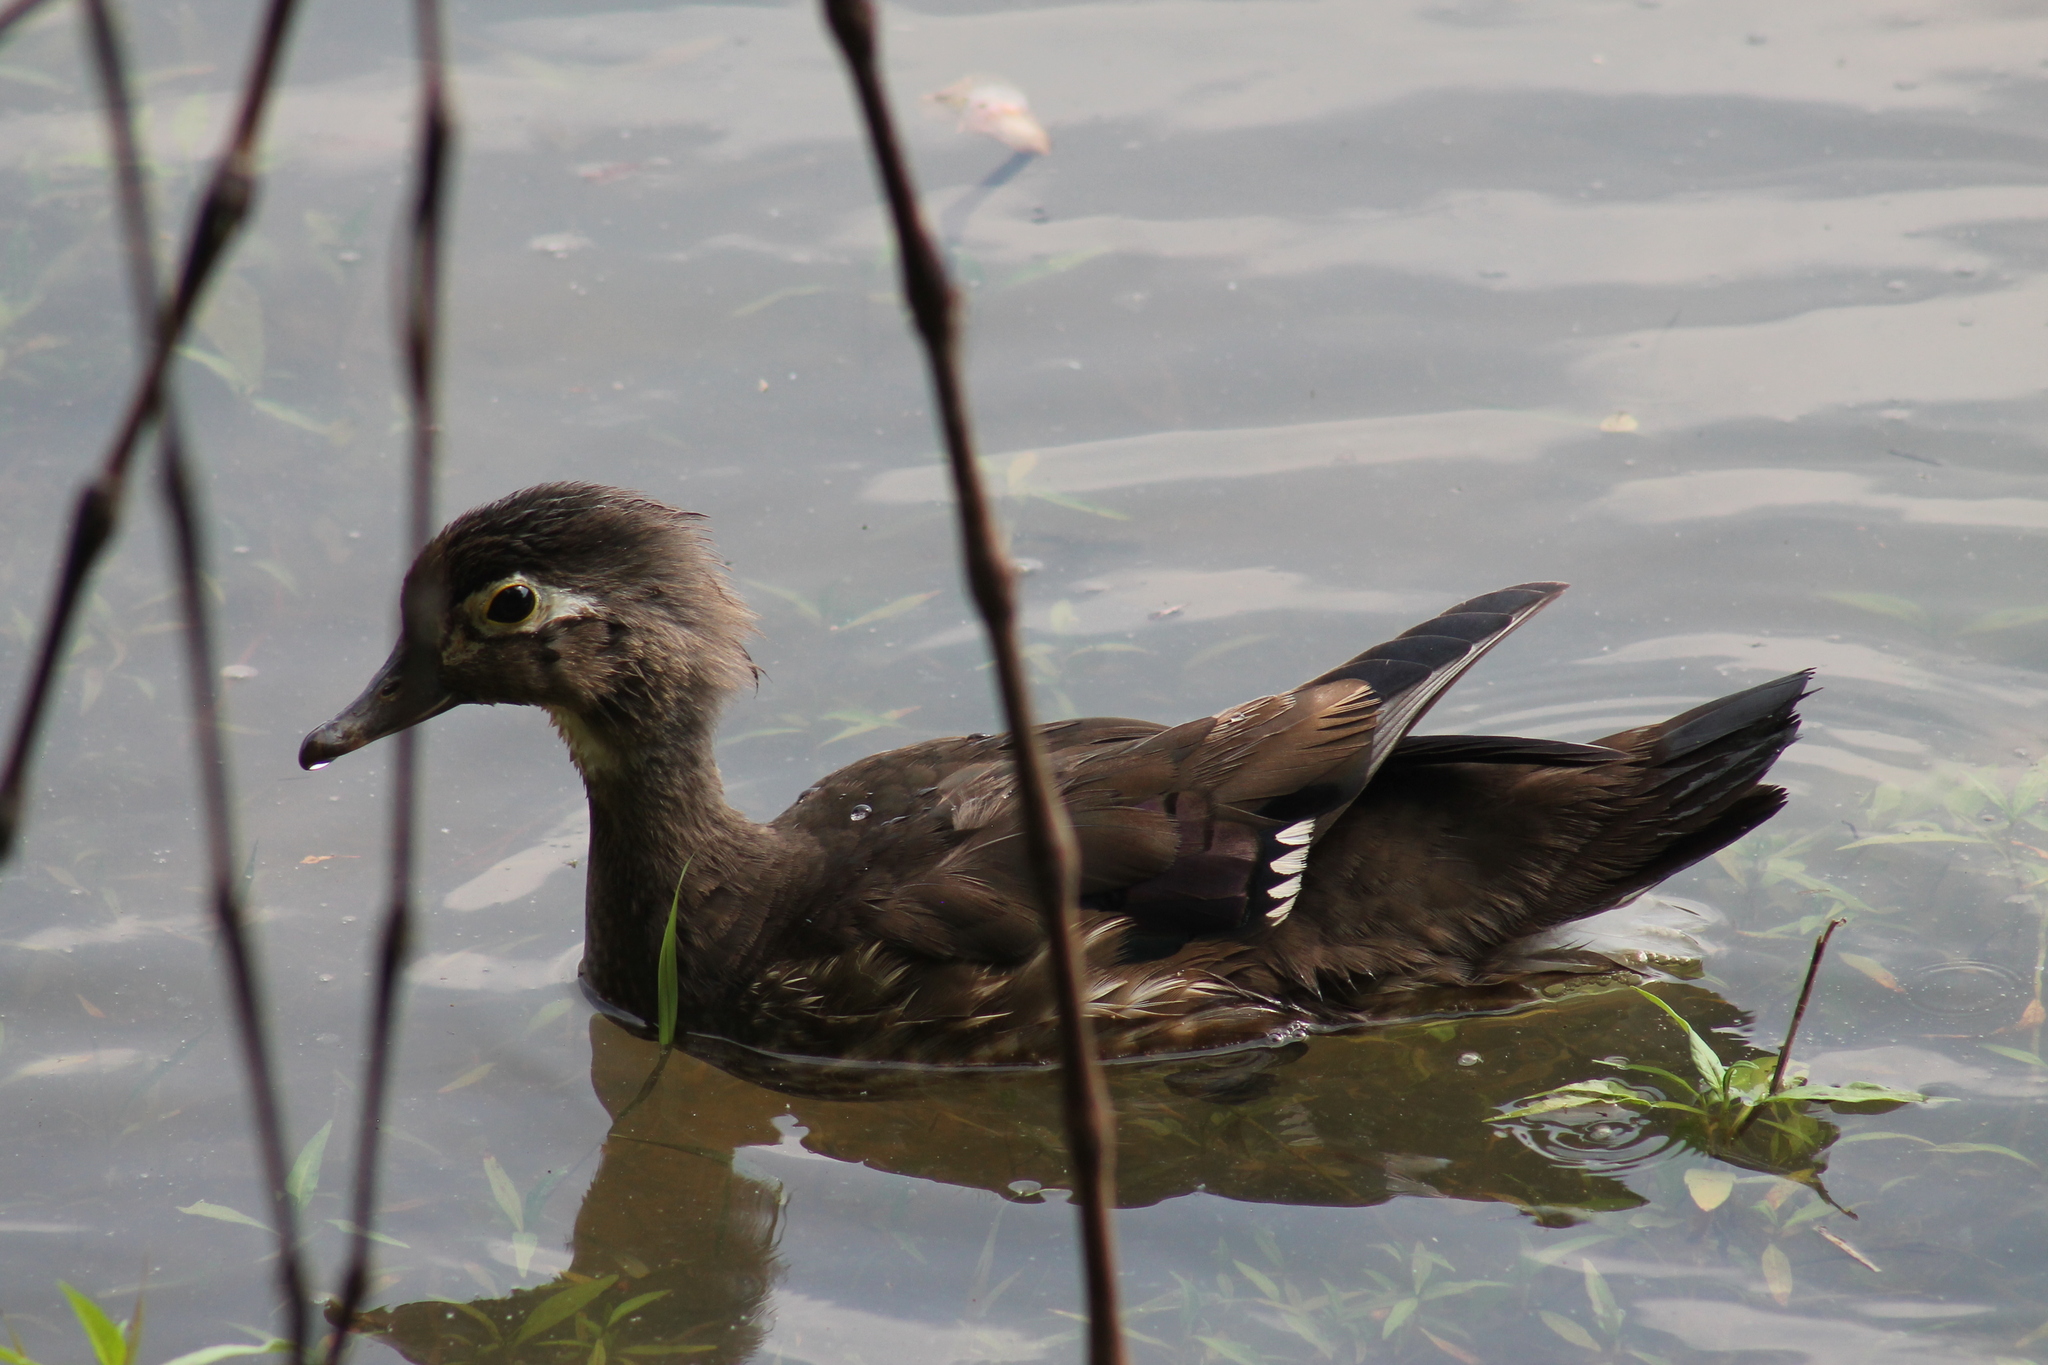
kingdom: Animalia
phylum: Chordata
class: Aves
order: Anseriformes
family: Anatidae
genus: Aix
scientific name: Aix sponsa
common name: Wood duck
